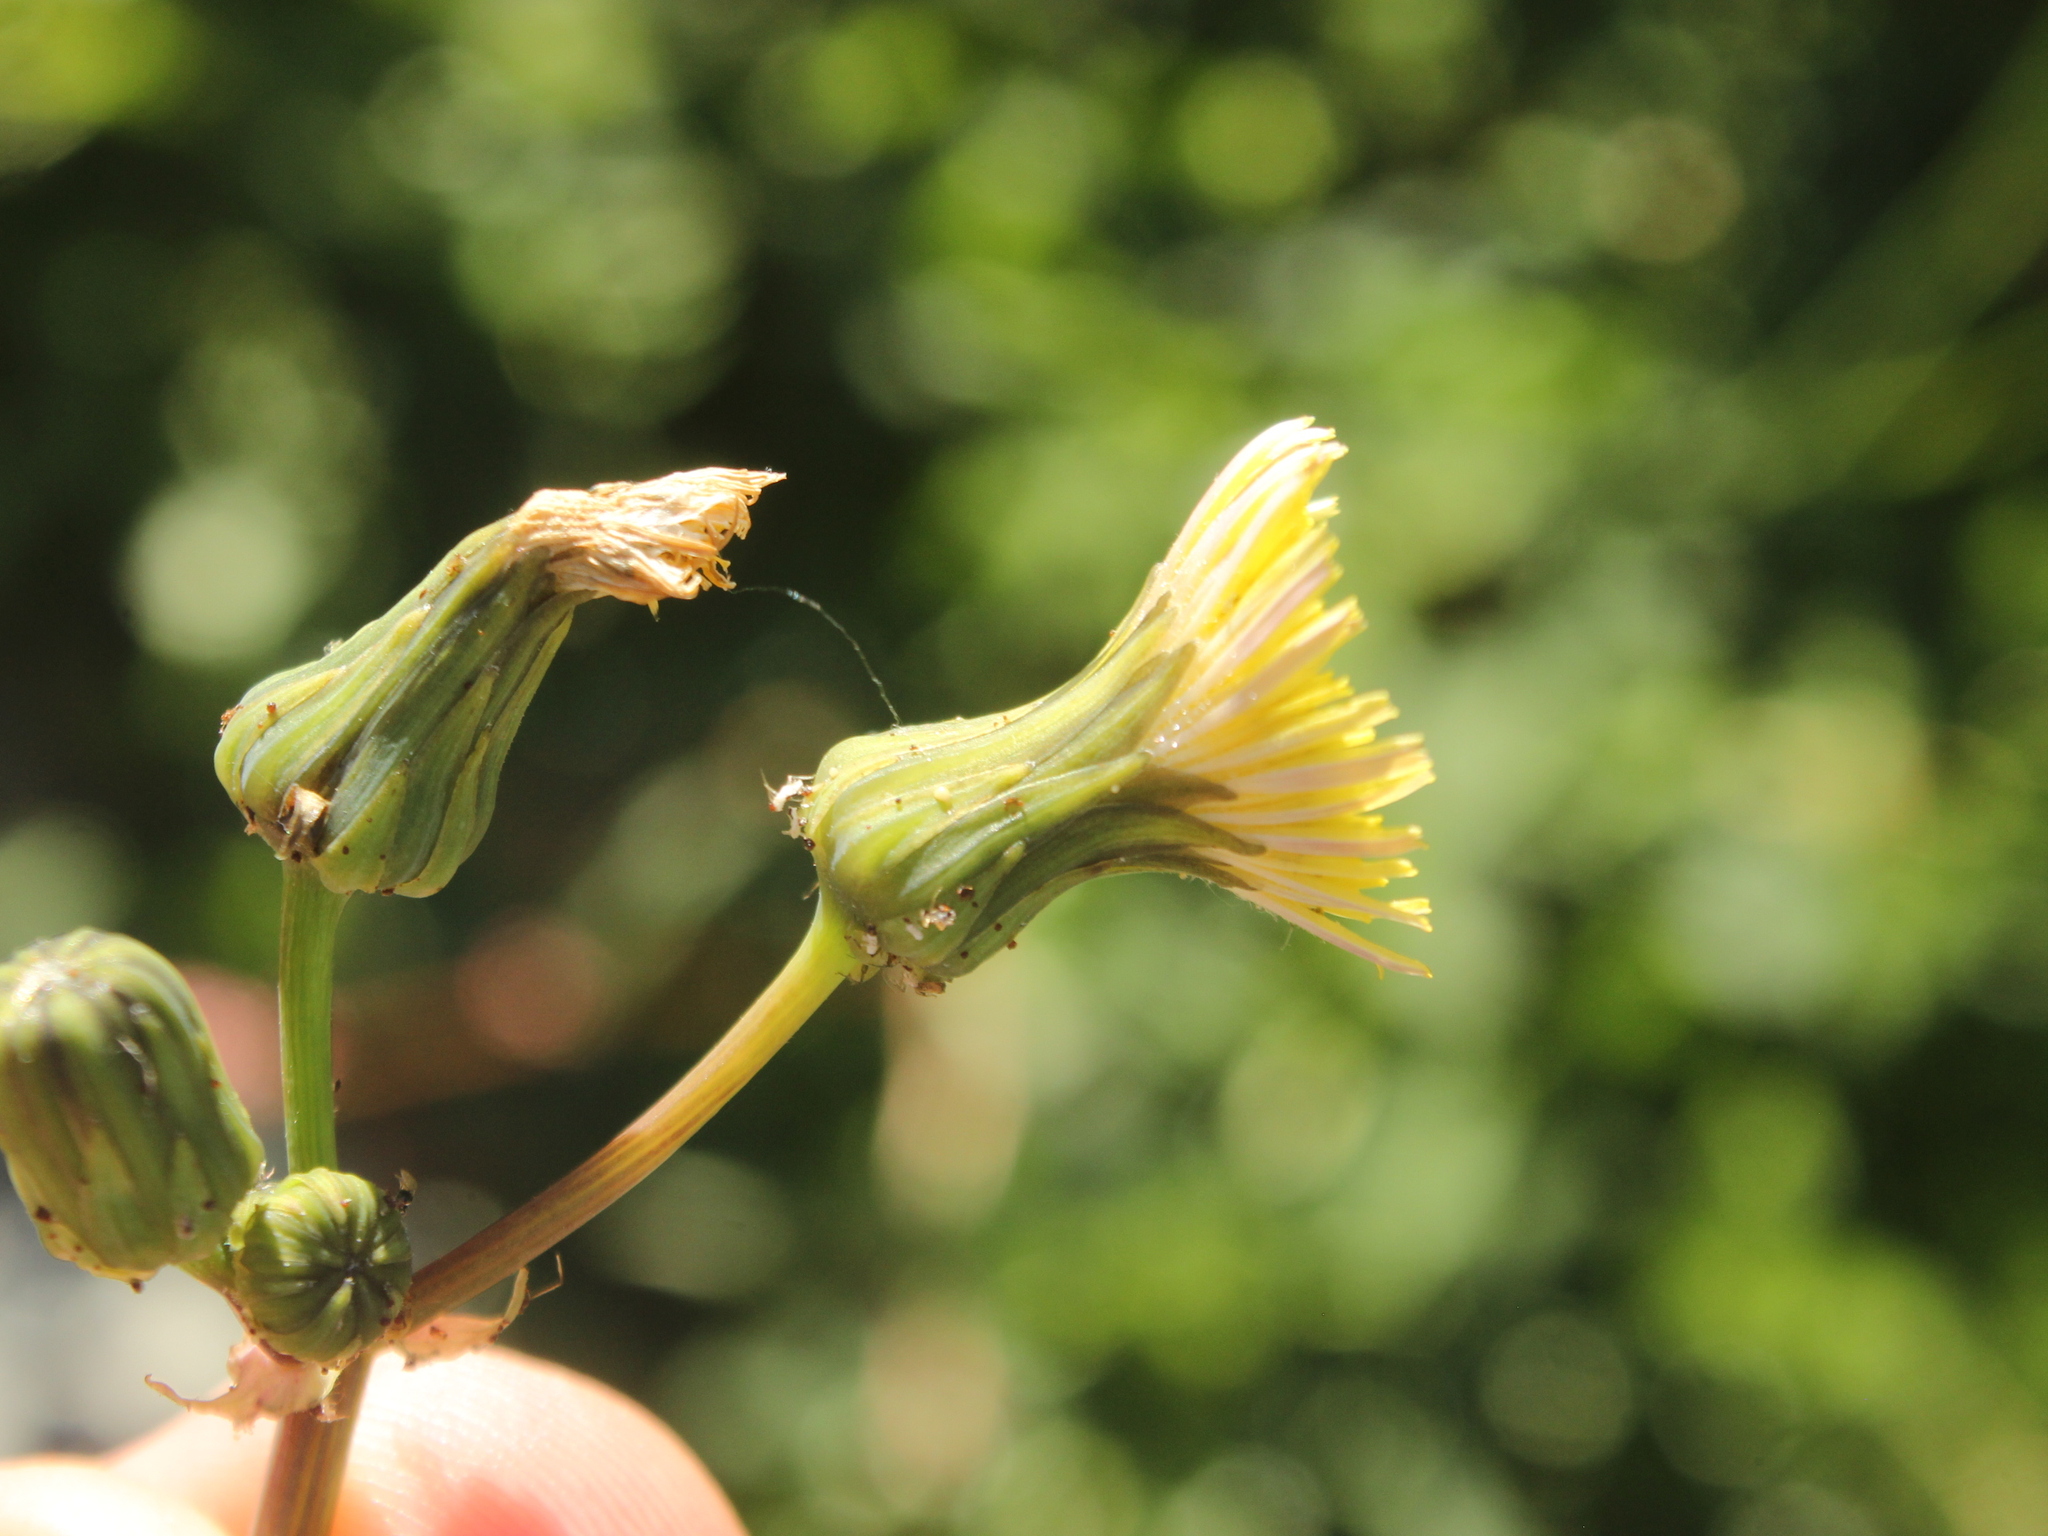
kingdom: Plantae
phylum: Tracheophyta
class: Magnoliopsida
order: Asterales
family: Asteraceae
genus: Sonchus
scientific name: Sonchus asper
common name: Prickly sow-thistle
